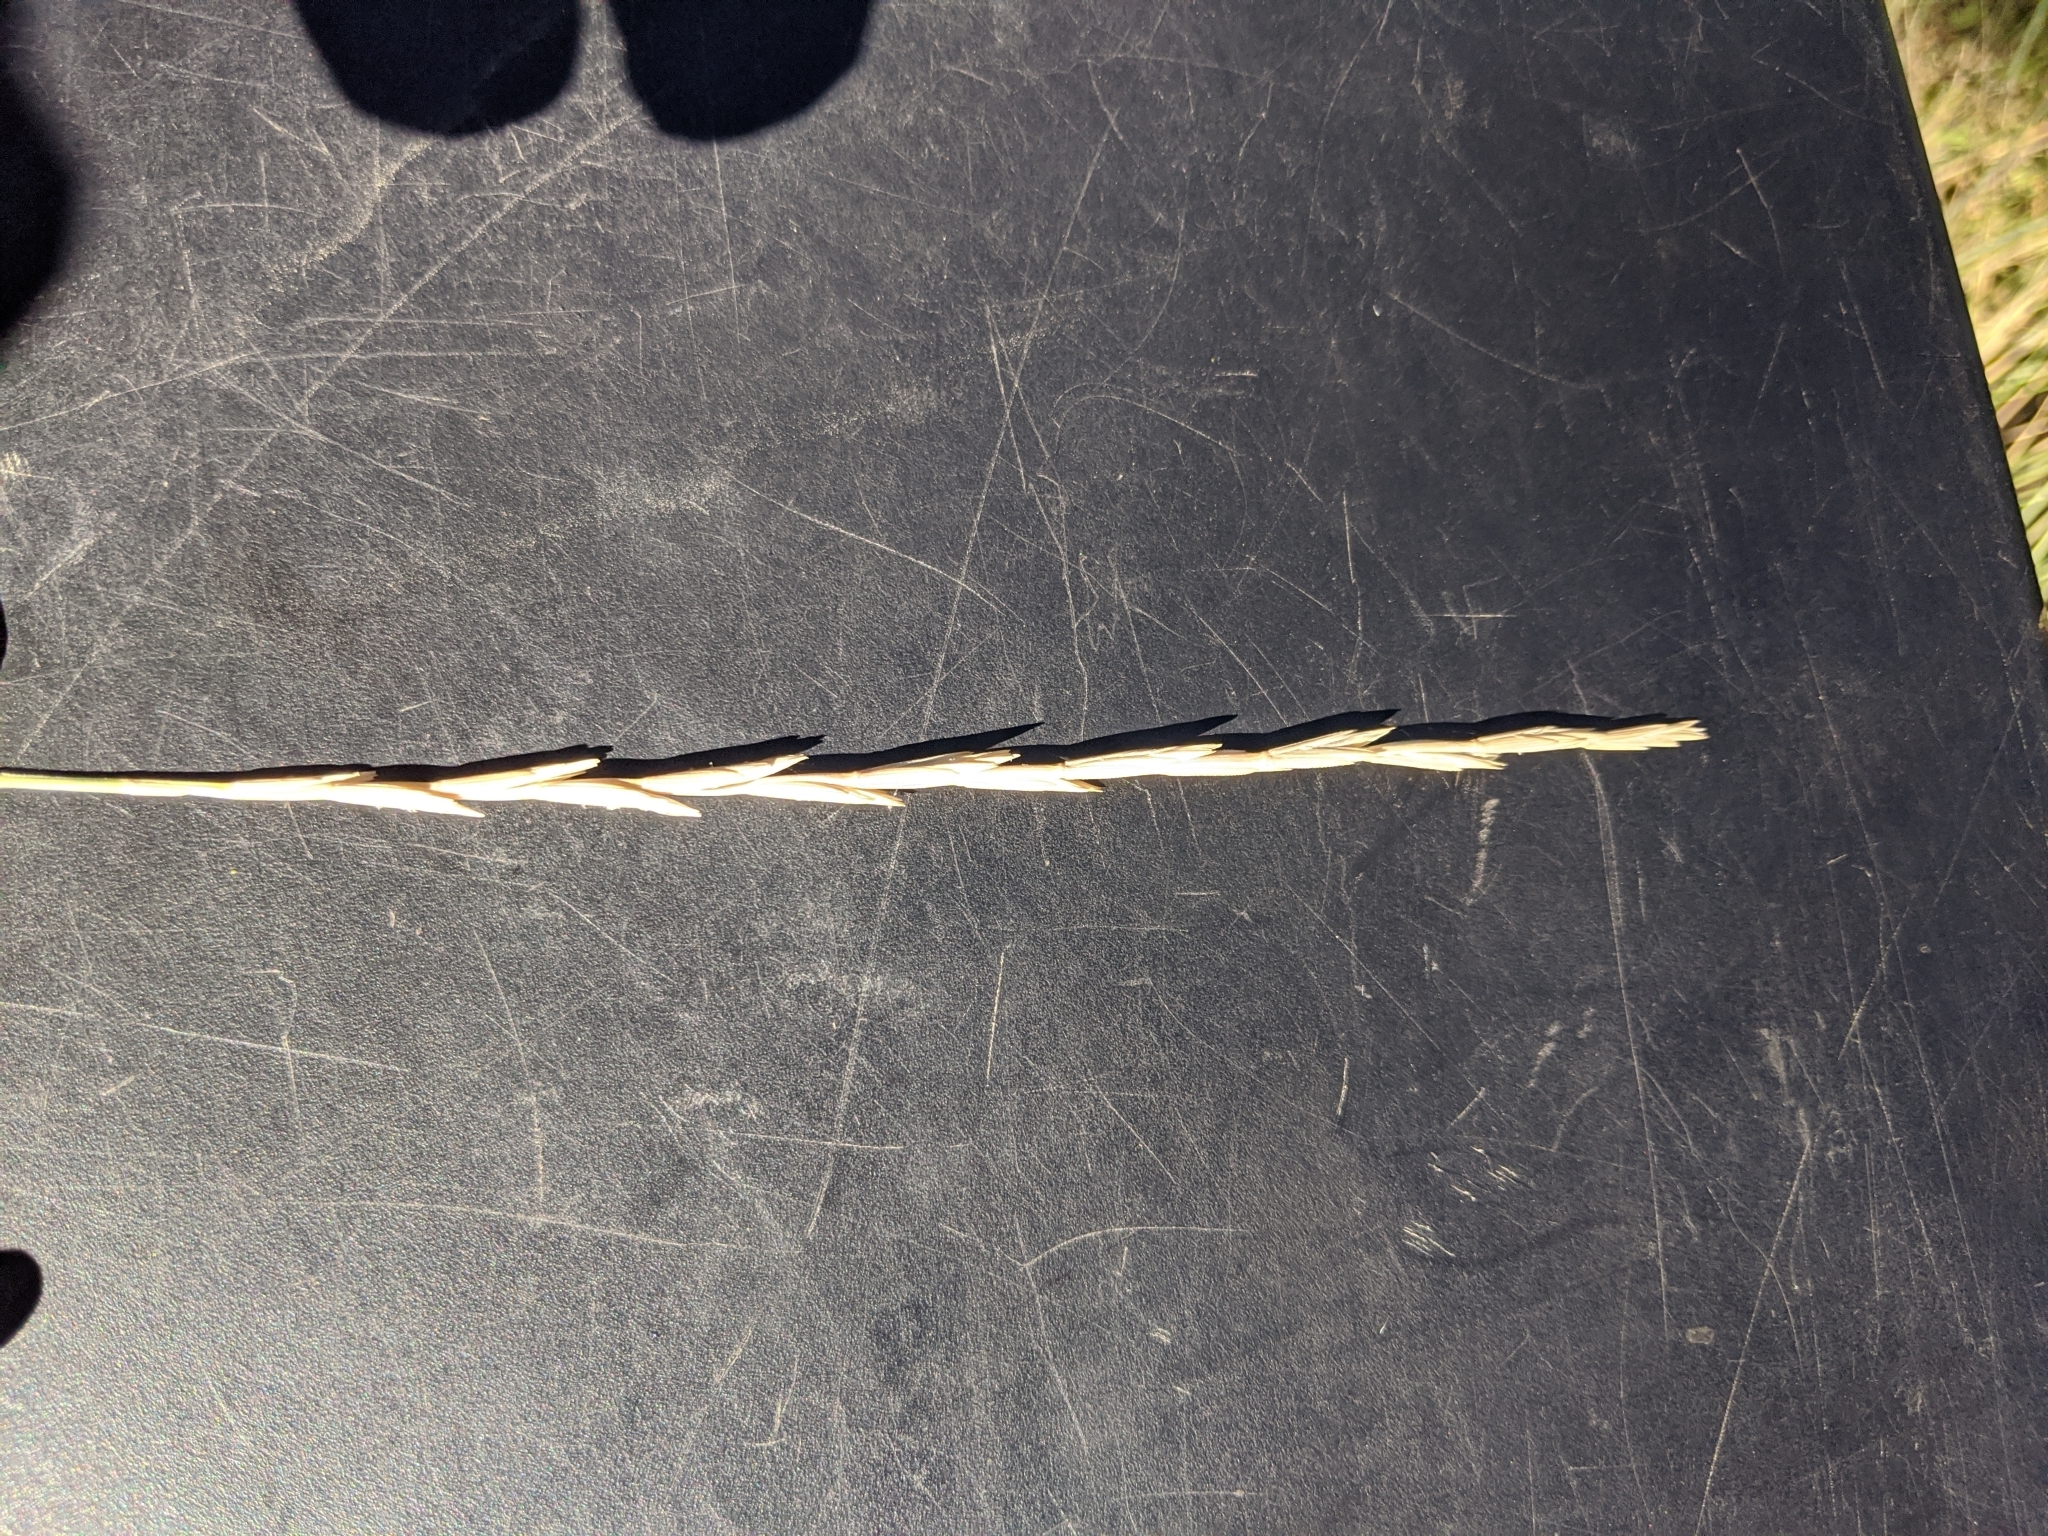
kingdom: Plantae
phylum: Tracheophyta
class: Liliopsida
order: Poales
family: Poaceae
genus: Elymus
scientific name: Elymus repens
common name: Quackgrass
